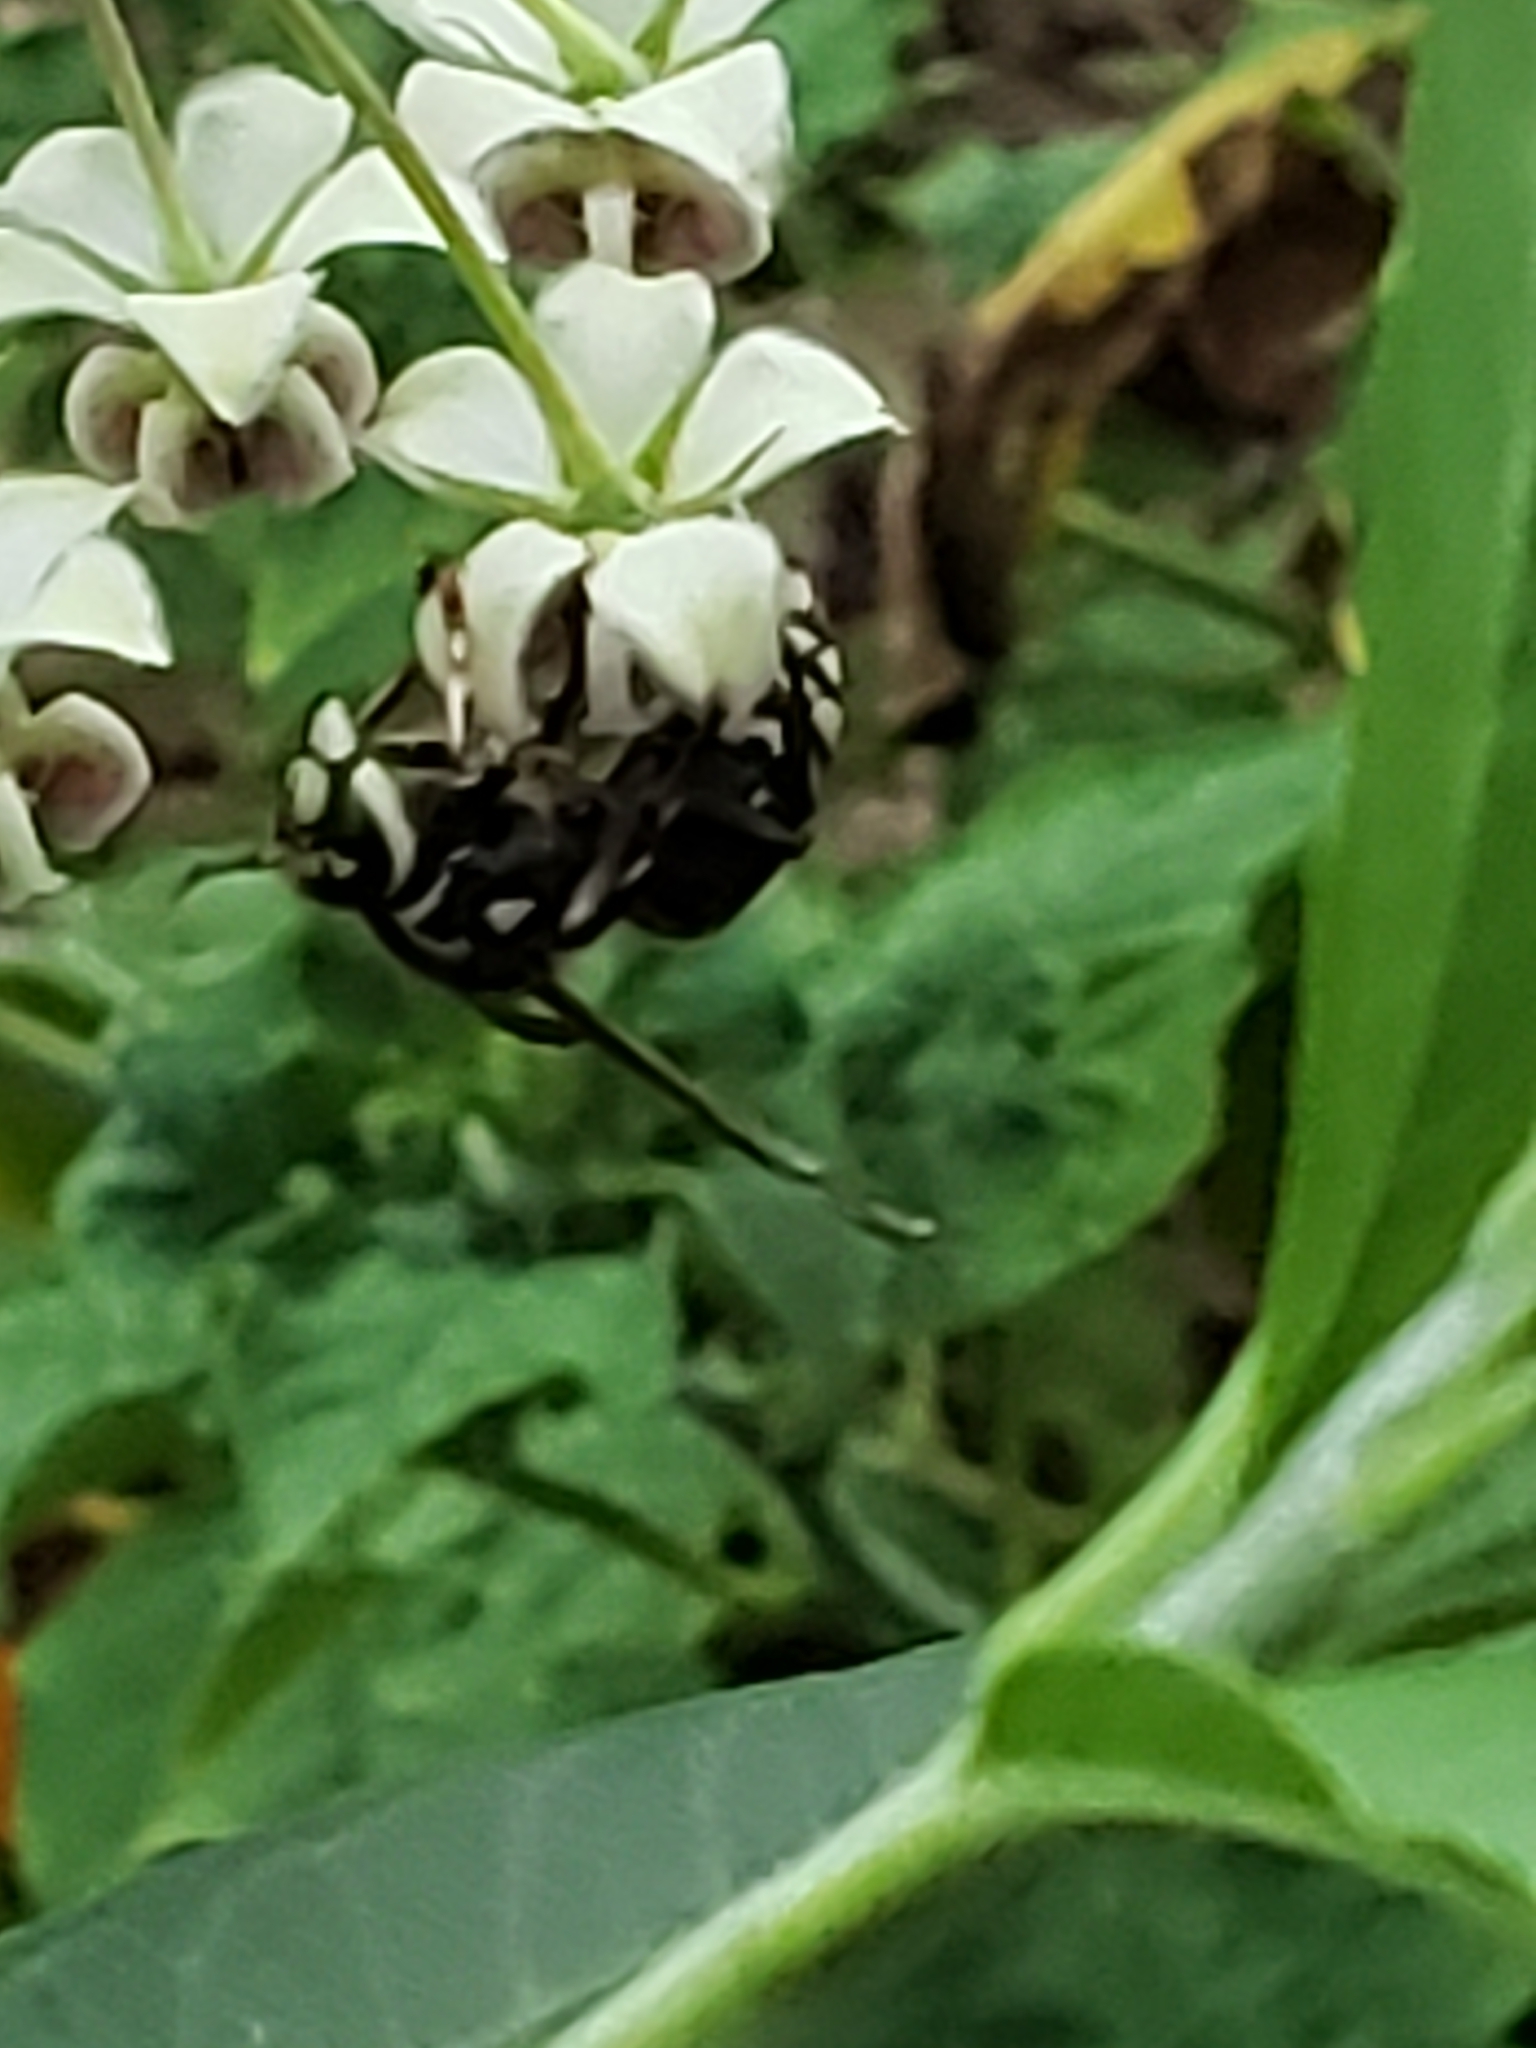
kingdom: Animalia
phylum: Arthropoda
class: Insecta
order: Hymenoptera
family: Vespidae
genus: Dolichovespula
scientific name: Dolichovespula maculata
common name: Bald-faced hornet
